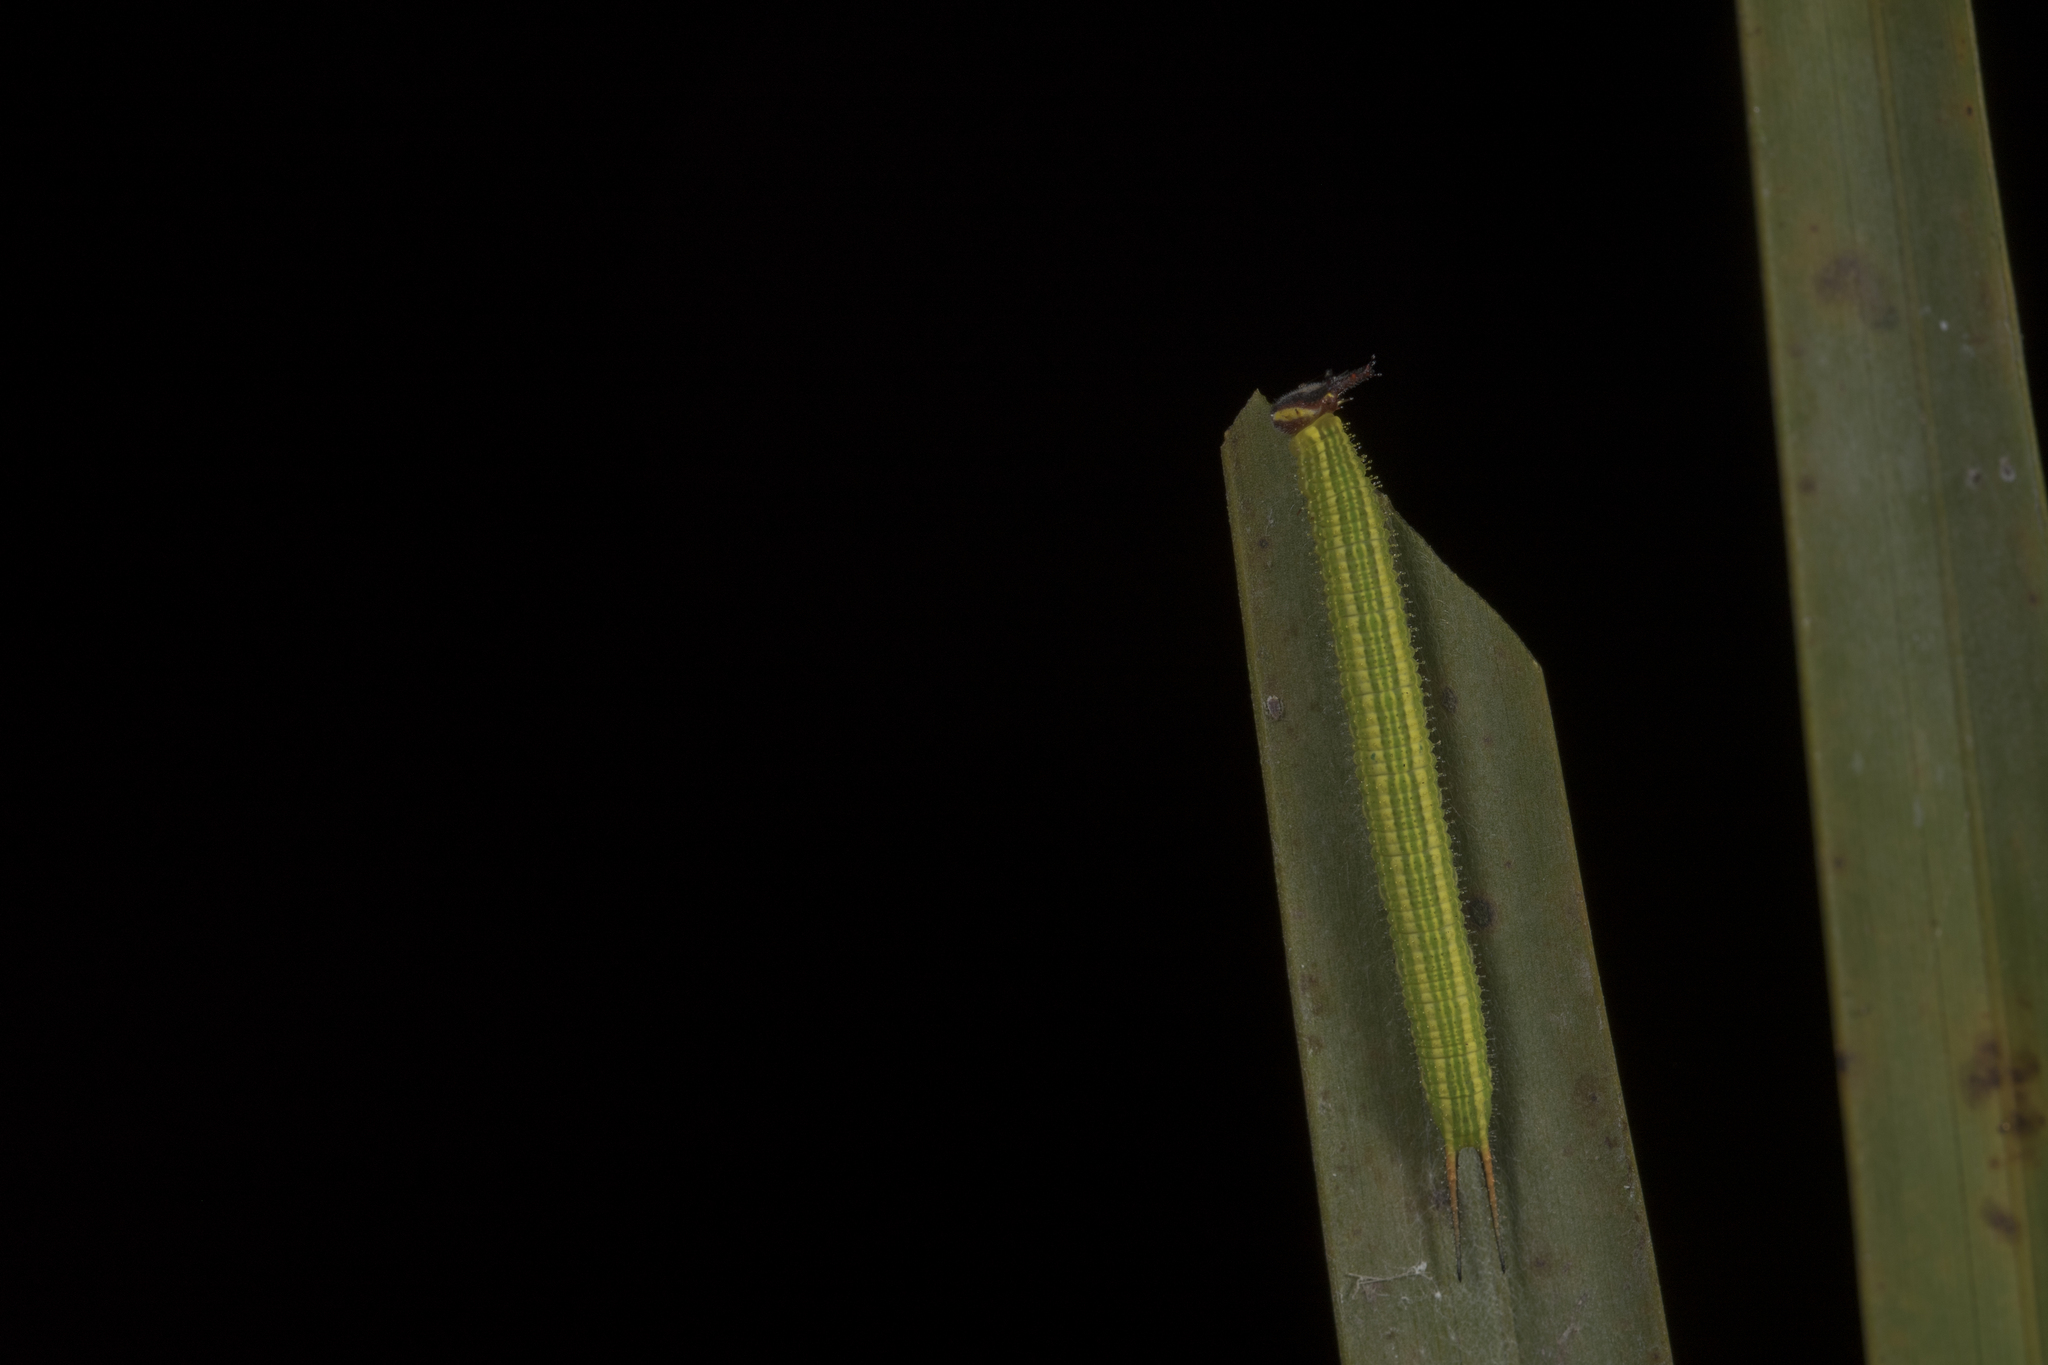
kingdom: Animalia
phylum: Arthropoda
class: Insecta
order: Lepidoptera
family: Nymphalidae
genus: Elymnias
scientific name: Elymnias hypermnestra
